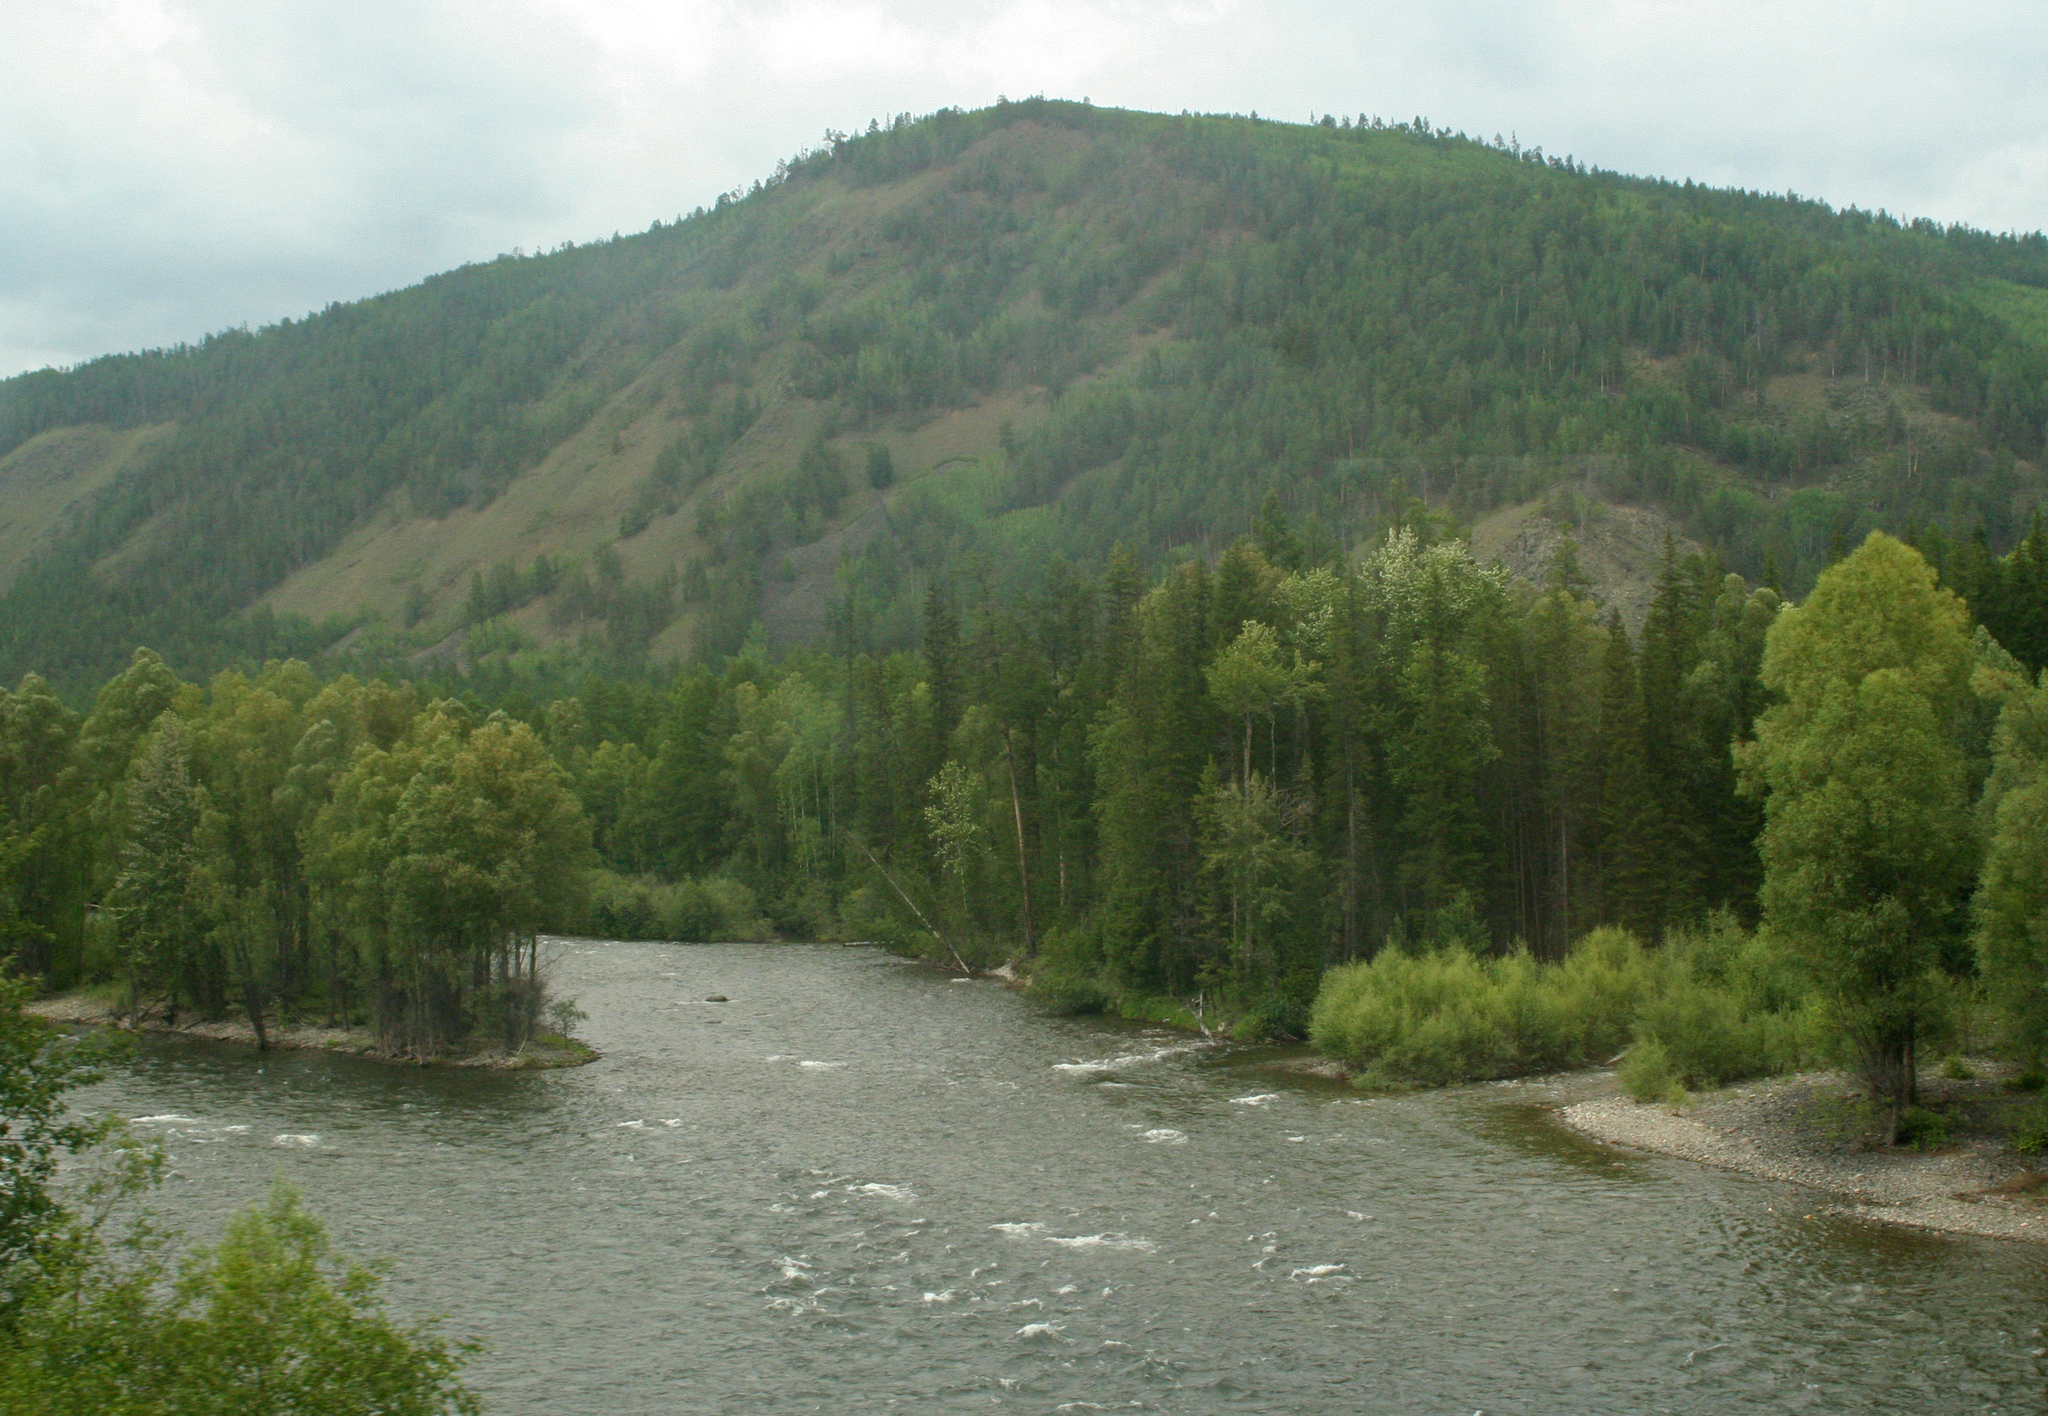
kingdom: Plantae
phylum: Tracheophyta
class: Pinopsida
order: Pinales
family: Pinaceae
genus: Picea
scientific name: Picea obovata
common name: Siberian spruce
